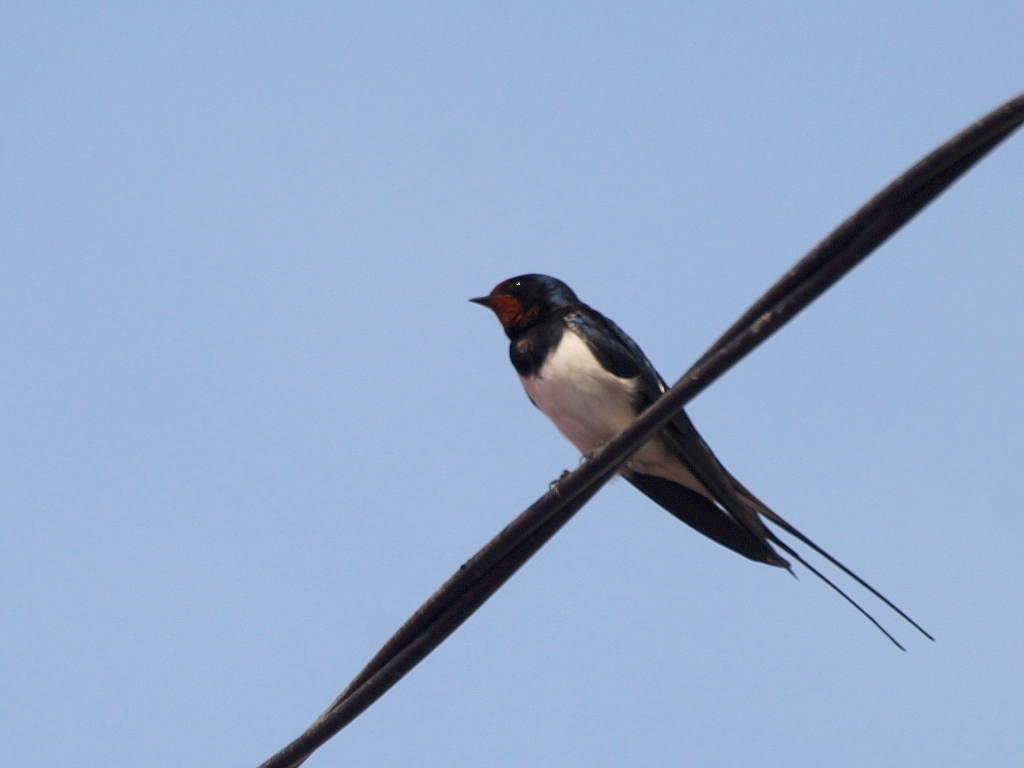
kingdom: Animalia
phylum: Chordata
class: Aves
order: Passeriformes
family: Hirundinidae
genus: Hirundo
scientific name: Hirundo rustica
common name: Barn swallow
